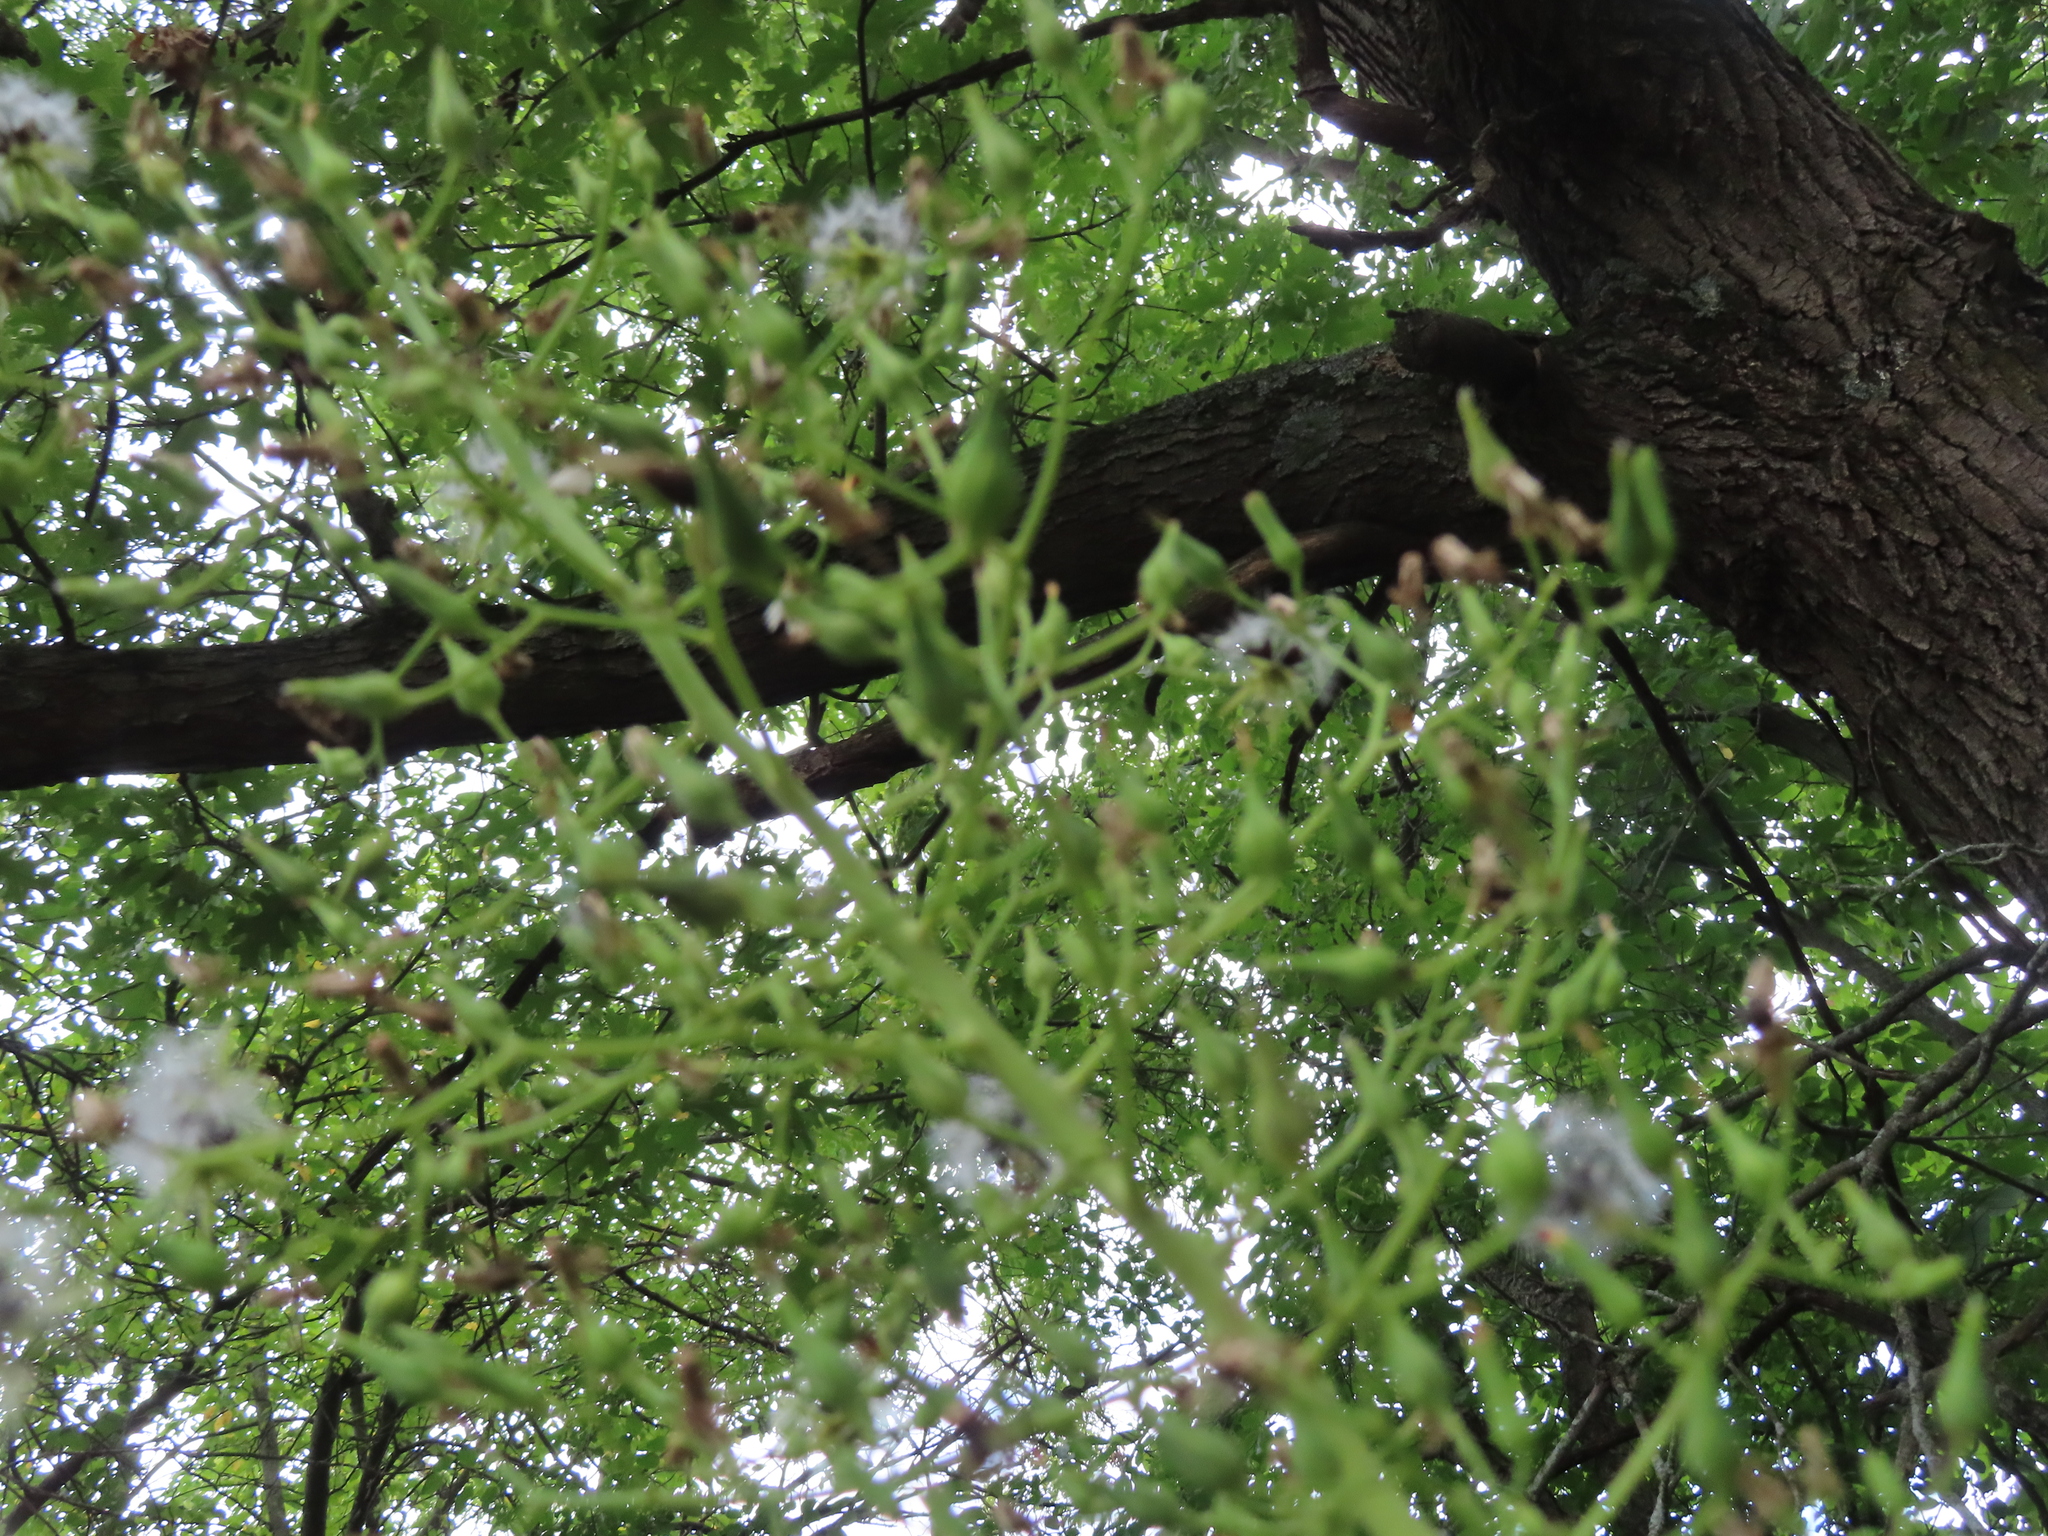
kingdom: Plantae
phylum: Tracheophyta
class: Magnoliopsida
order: Asterales
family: Asteraceae
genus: Lactuca
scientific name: Lactuca canadensis
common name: Canada lettuce
